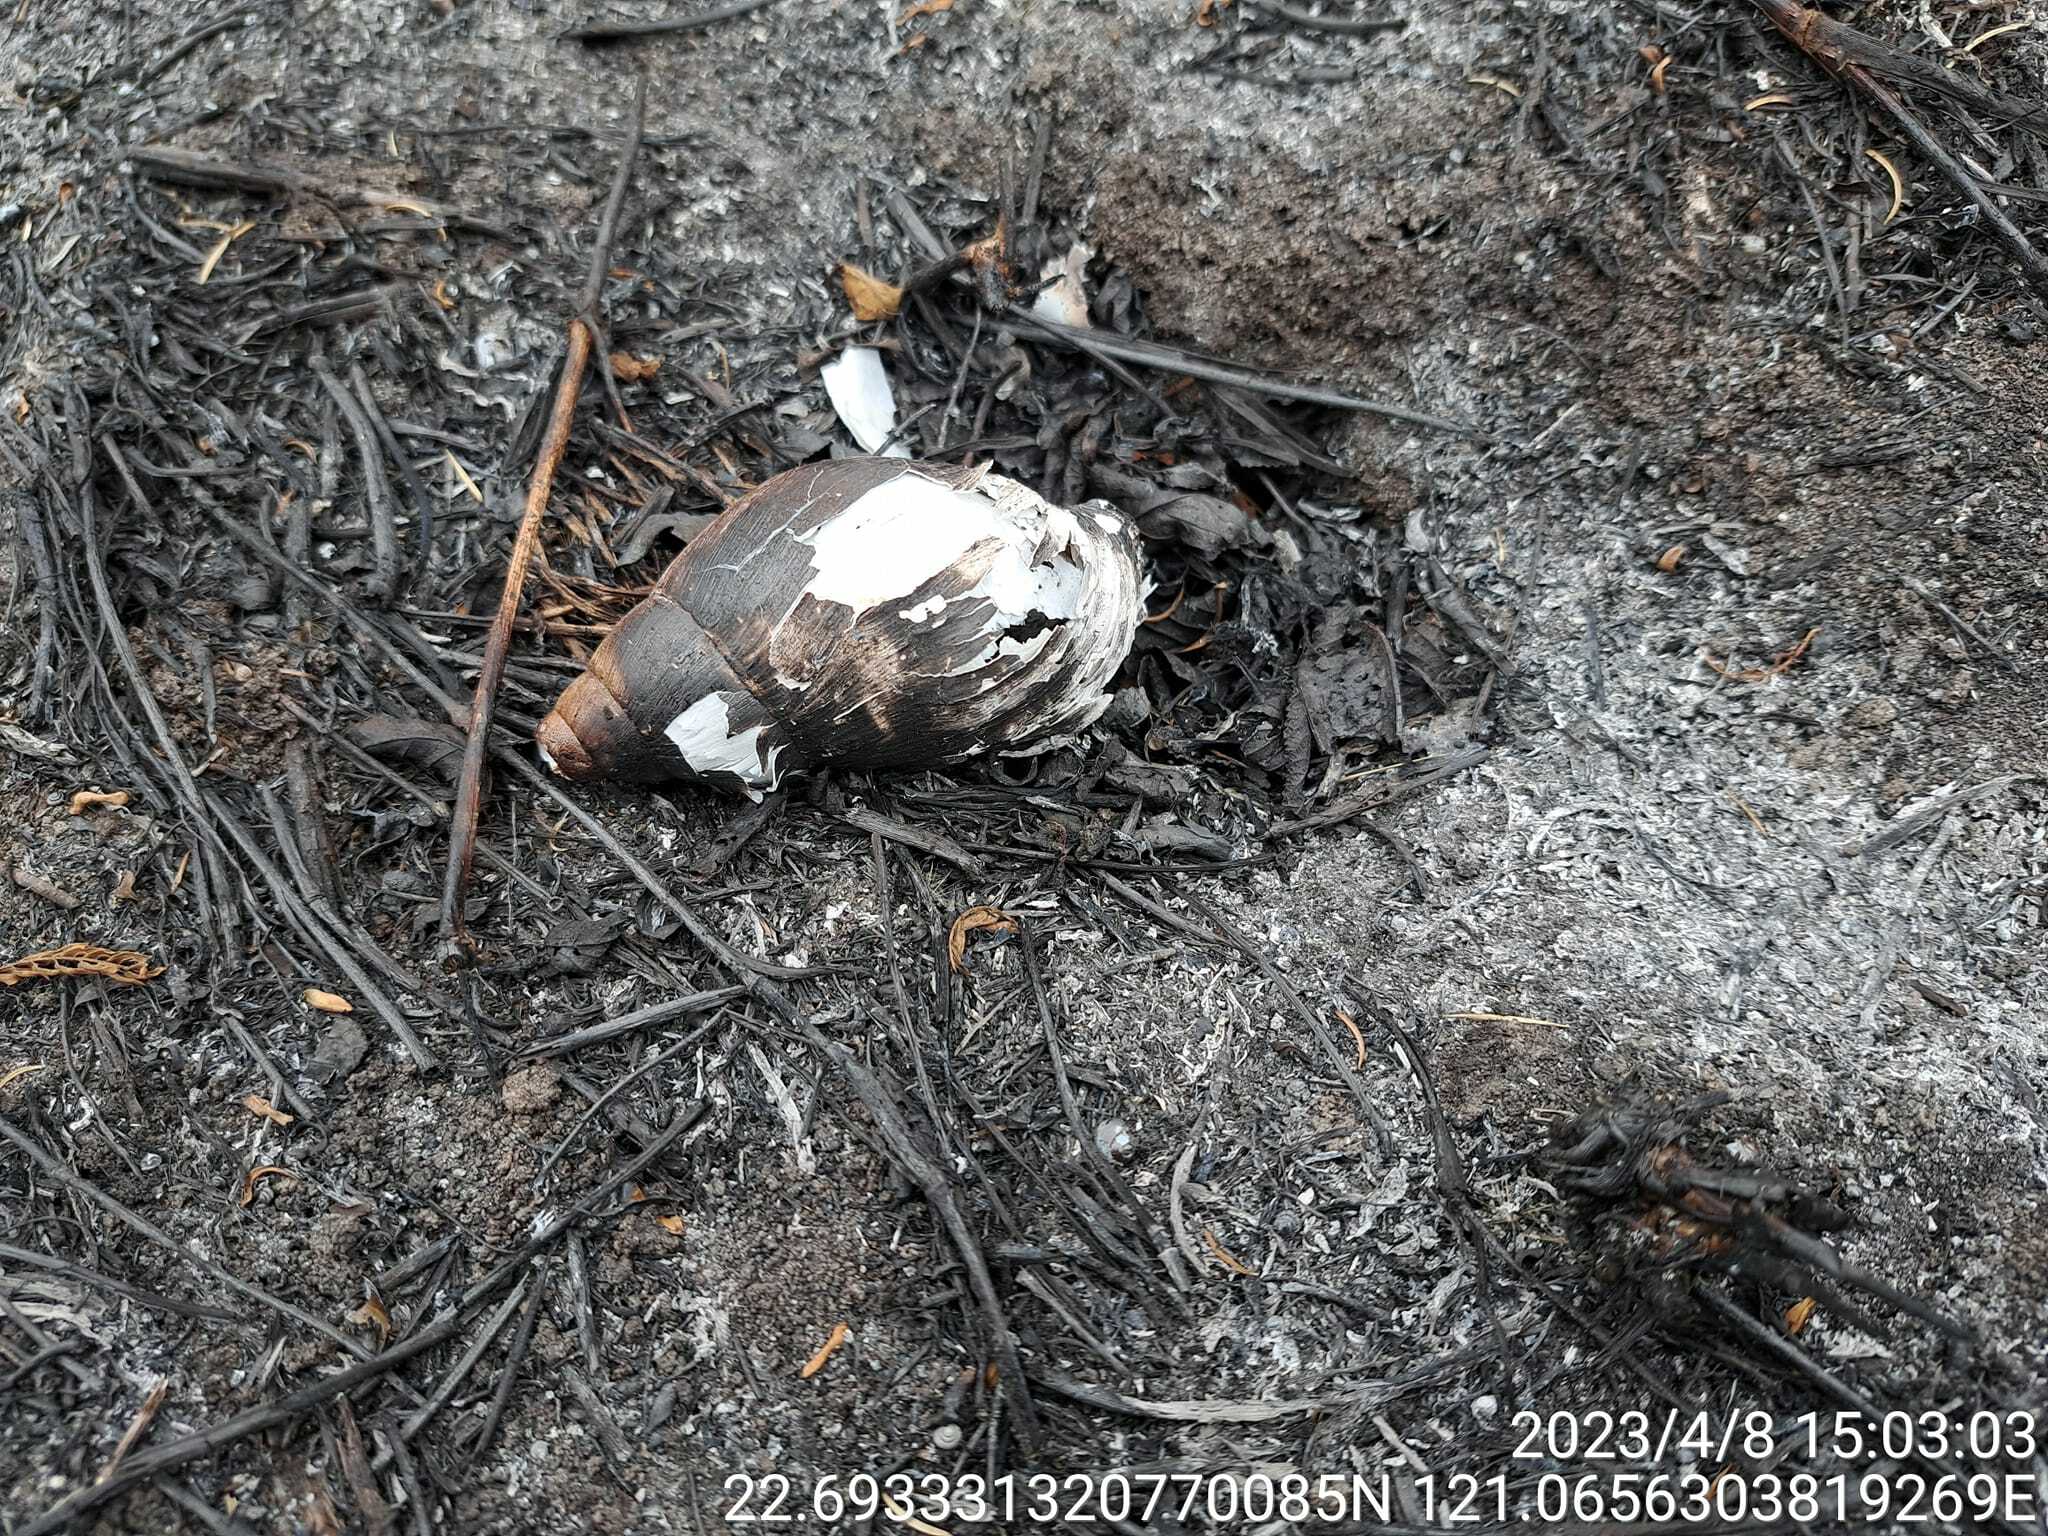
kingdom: Animalia
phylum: Mollusca
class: Gastropoda
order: Stylommatophora
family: Achatinidae
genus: Lissachatina
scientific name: Lissachatina fulica
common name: Giant african snail
